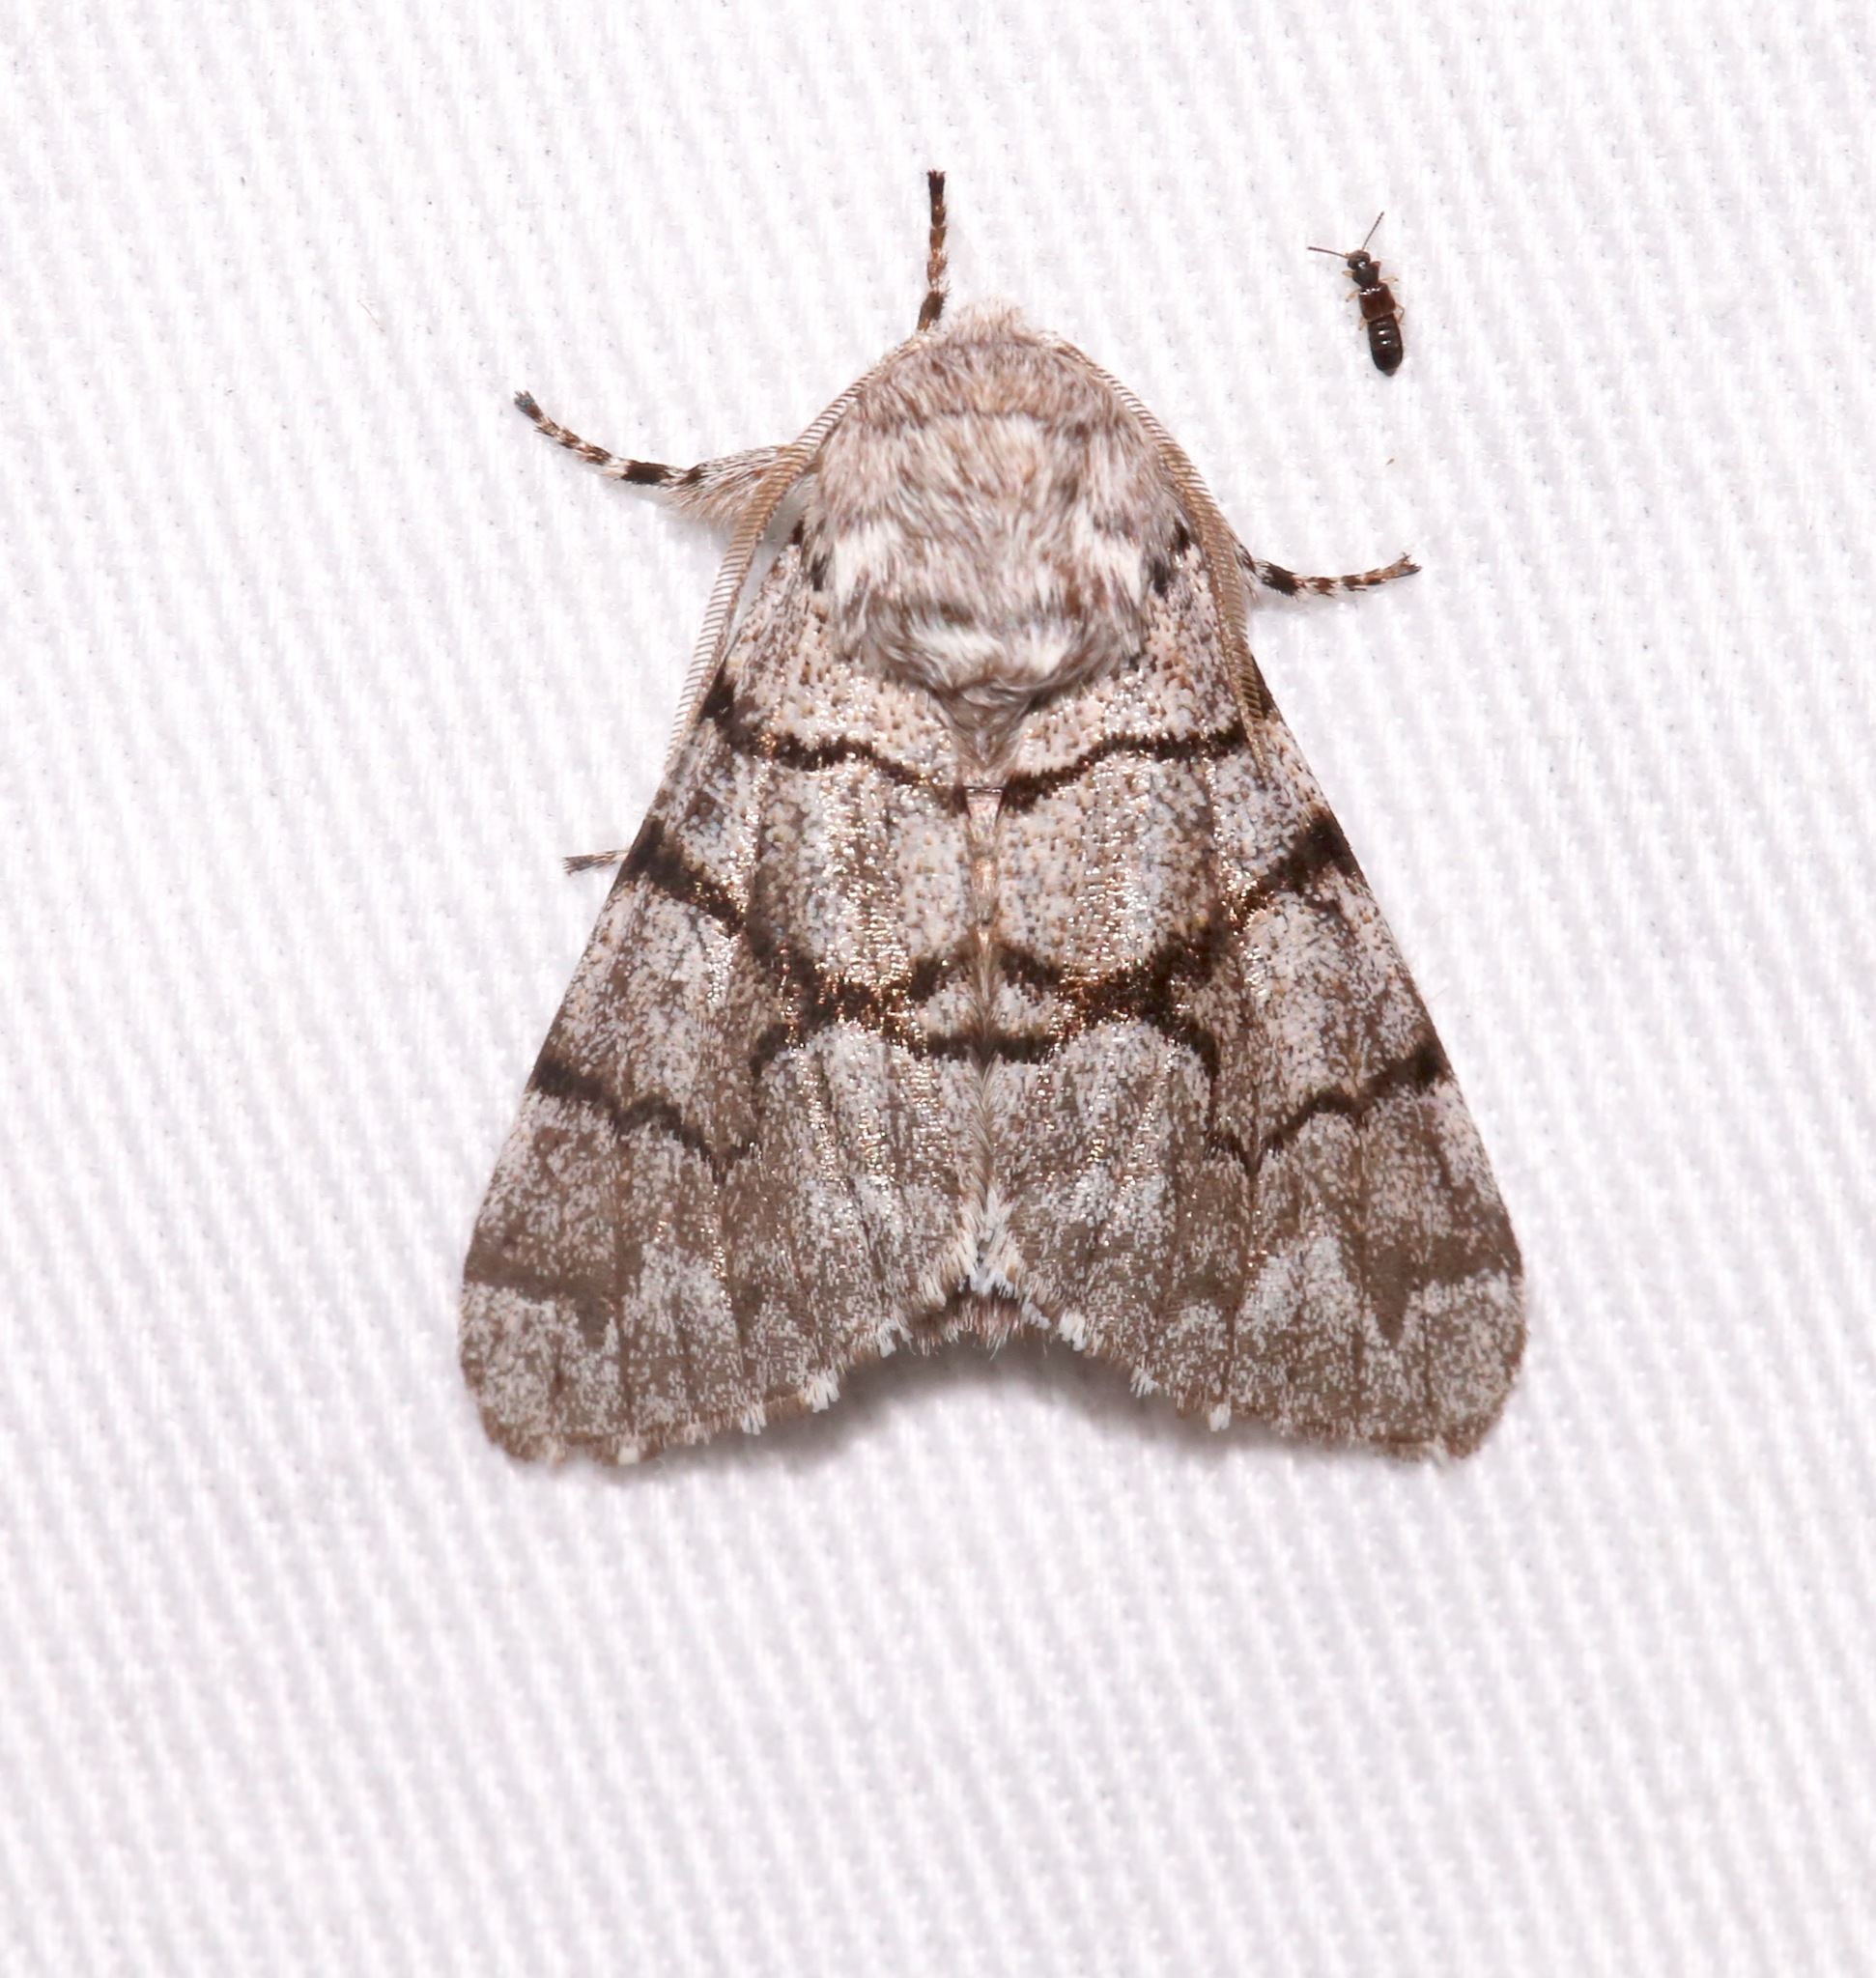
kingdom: Animalia
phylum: Arthropoda
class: Insecta
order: Lepidoptera
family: Noctuidae
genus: Panthea
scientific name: Panthea furcilla
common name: Eastern panthea moth
